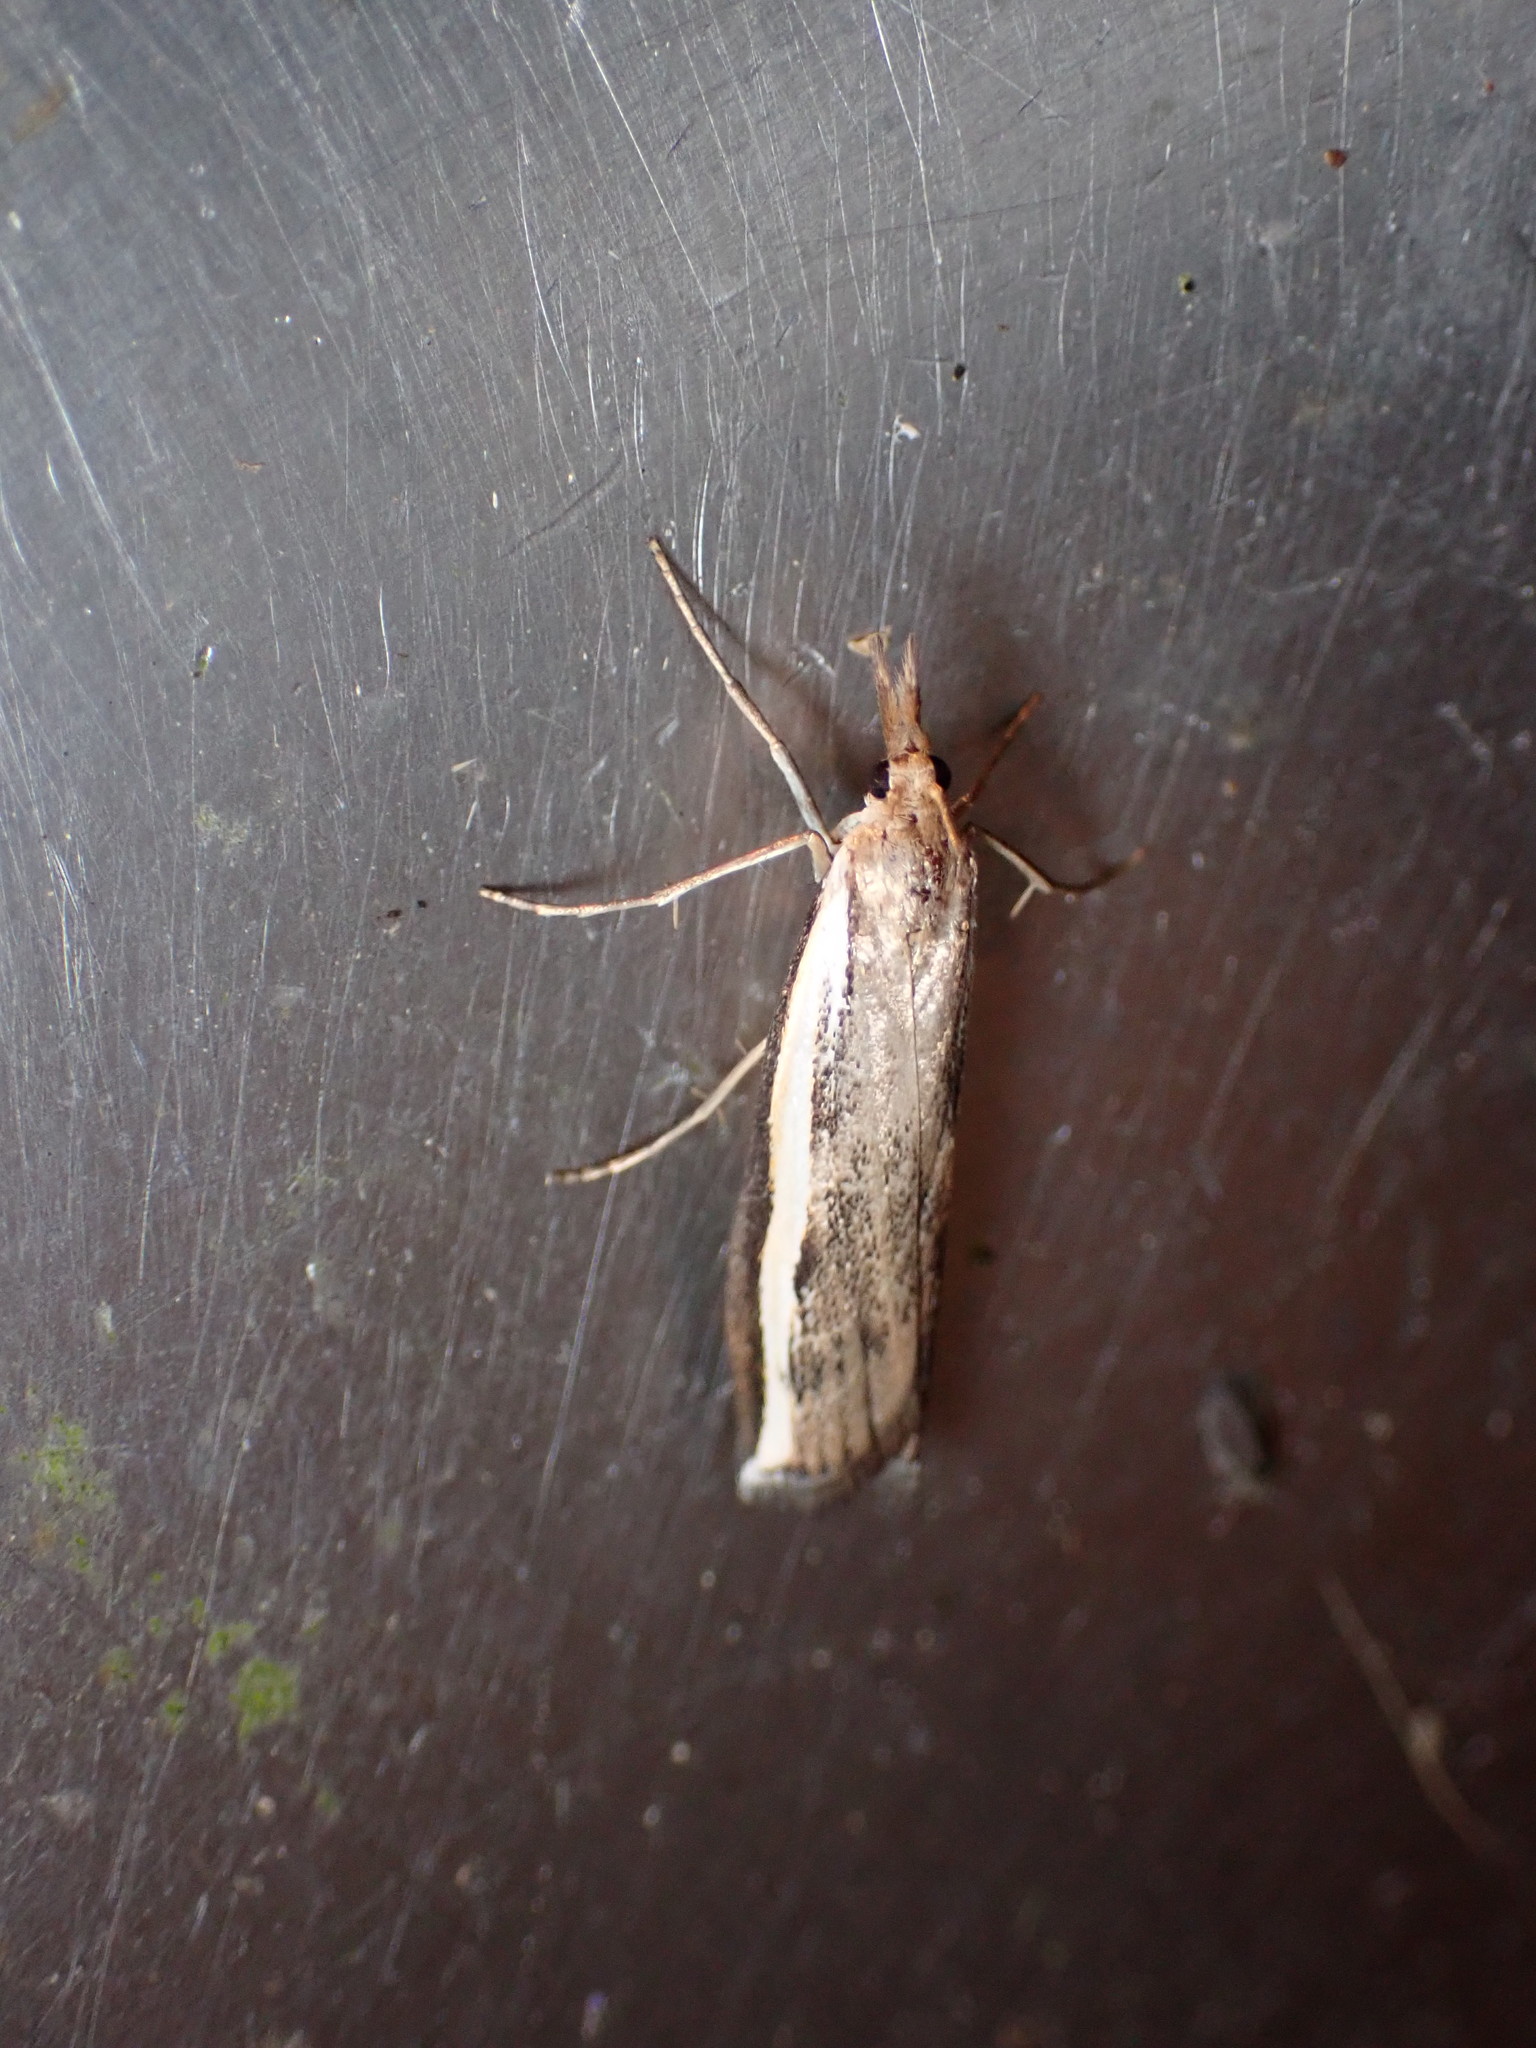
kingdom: Animalia
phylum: Arthropoda
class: Insecta
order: Lepidoptera
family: Crambidae
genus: Orocrambus
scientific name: Orocrambus flexuosellus
